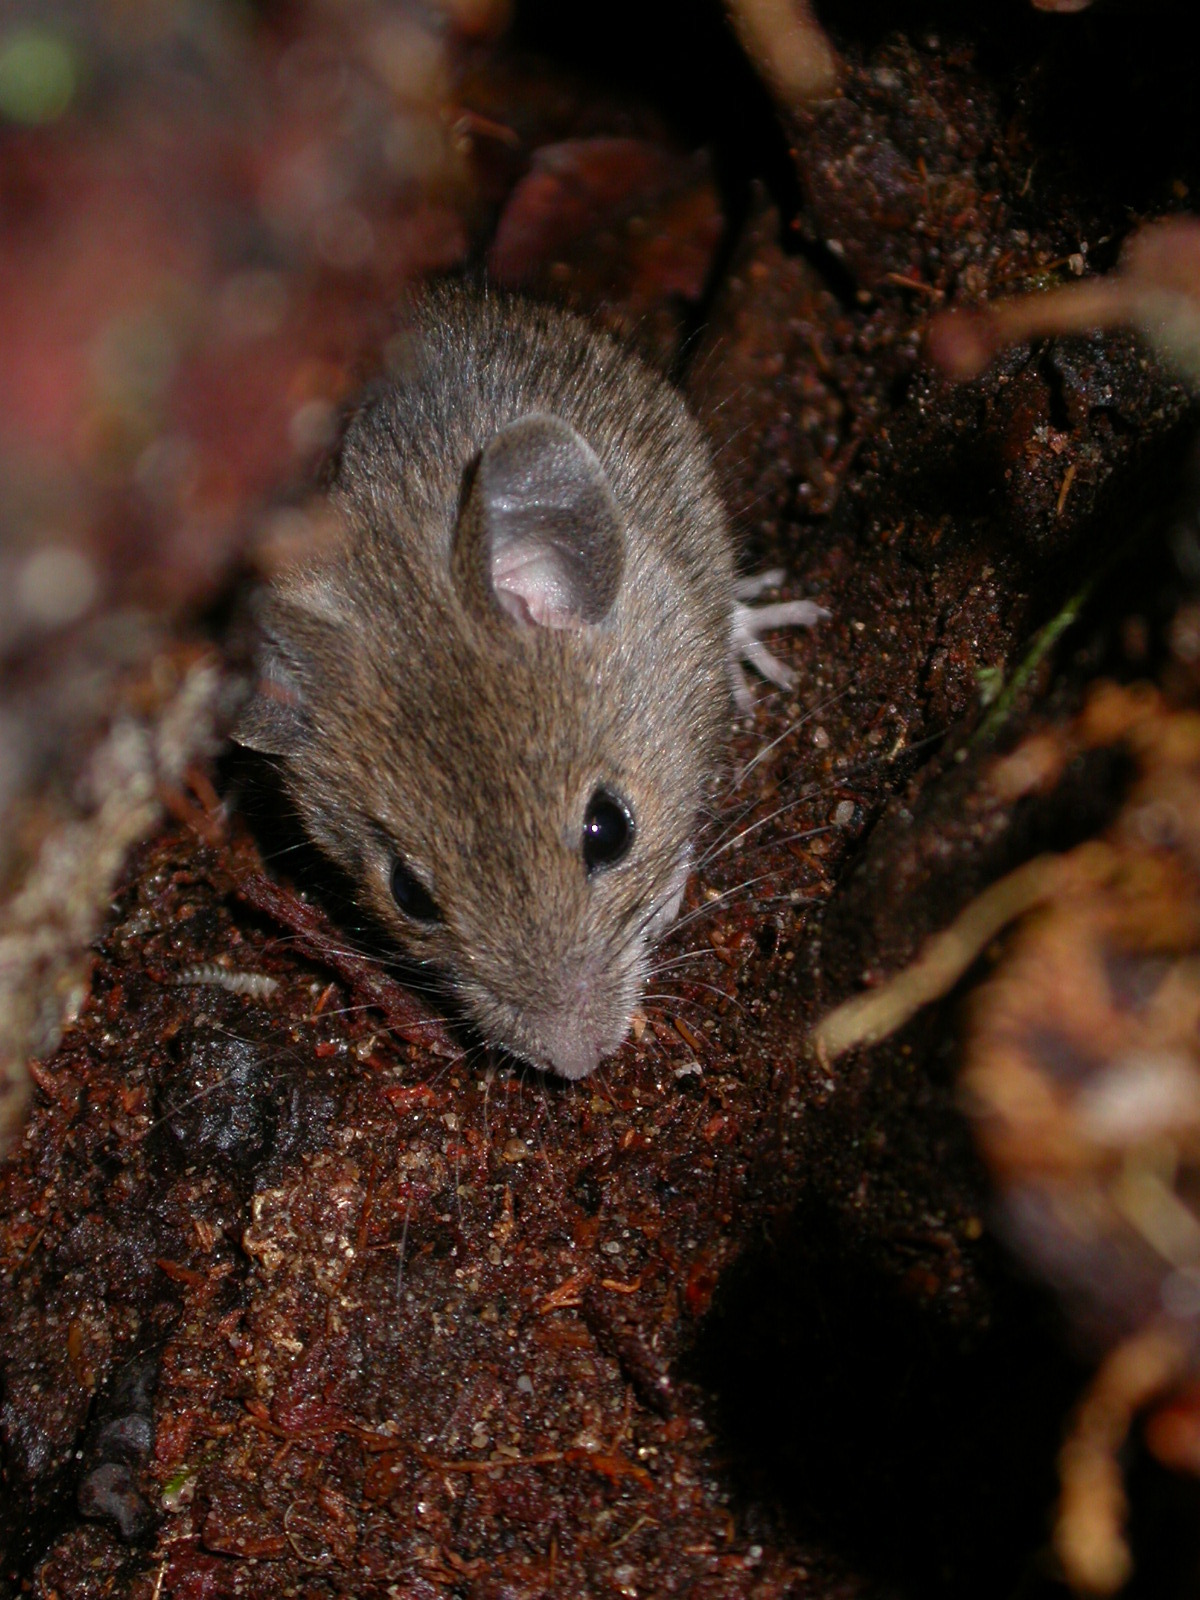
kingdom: Animalia
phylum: Chordata
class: Mammalia
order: Rodentia
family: Muridae
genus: Apodemus
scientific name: Apodemus sylvaticus
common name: Wood mouse
